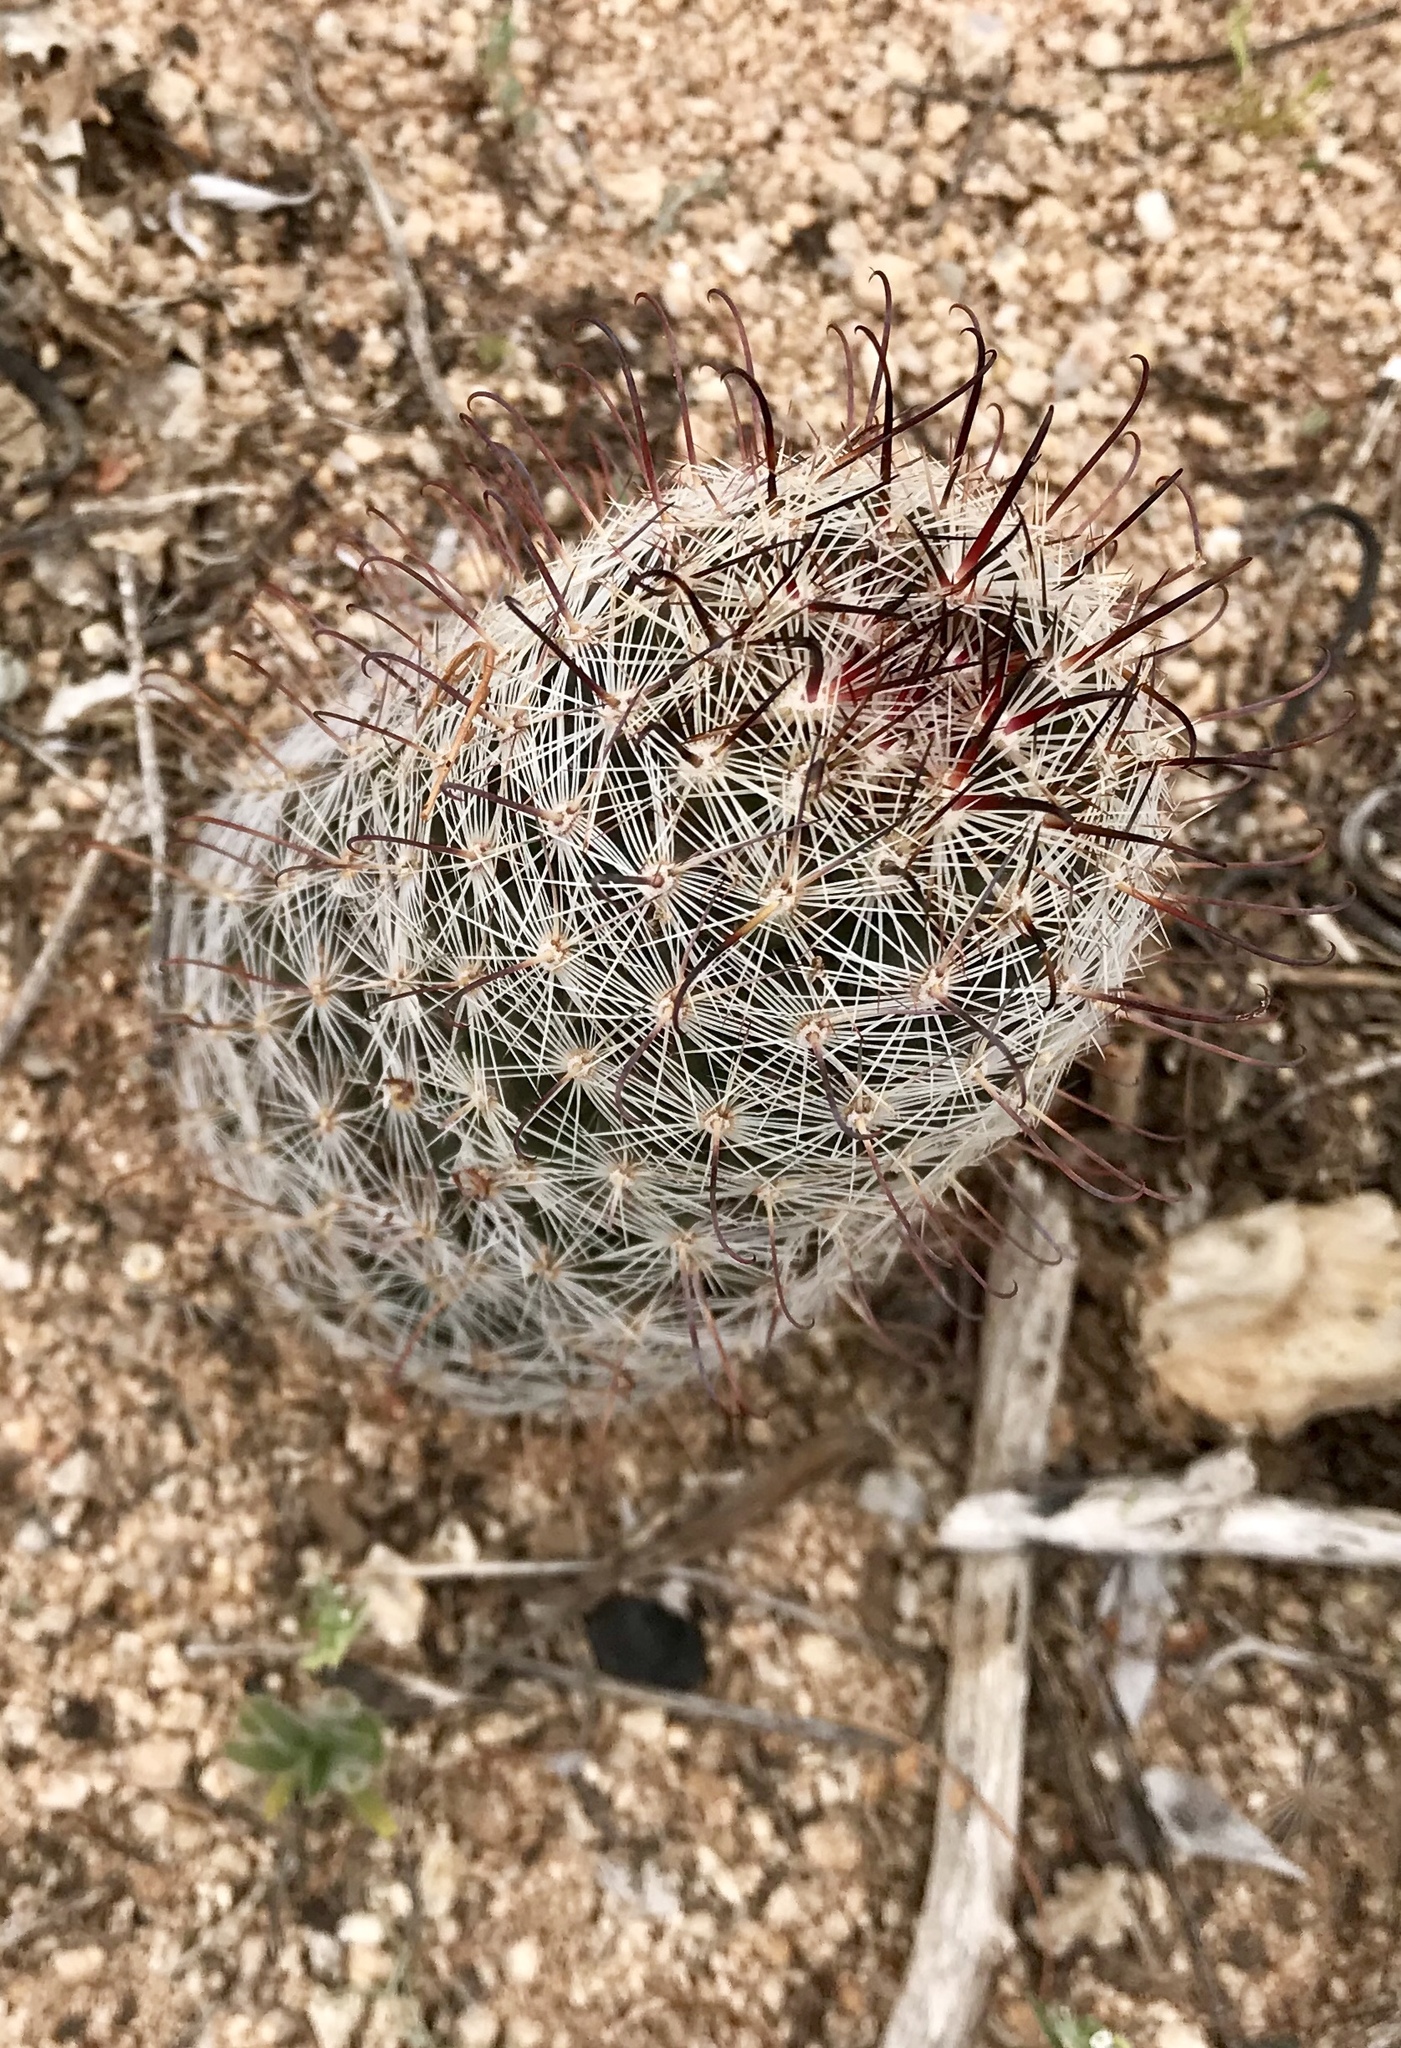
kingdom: Plantae
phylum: Tracheophyta
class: Magnoliopsida
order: Caryophyllales
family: Cactaceae
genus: Cochemiea
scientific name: Cochemiea grahamii
